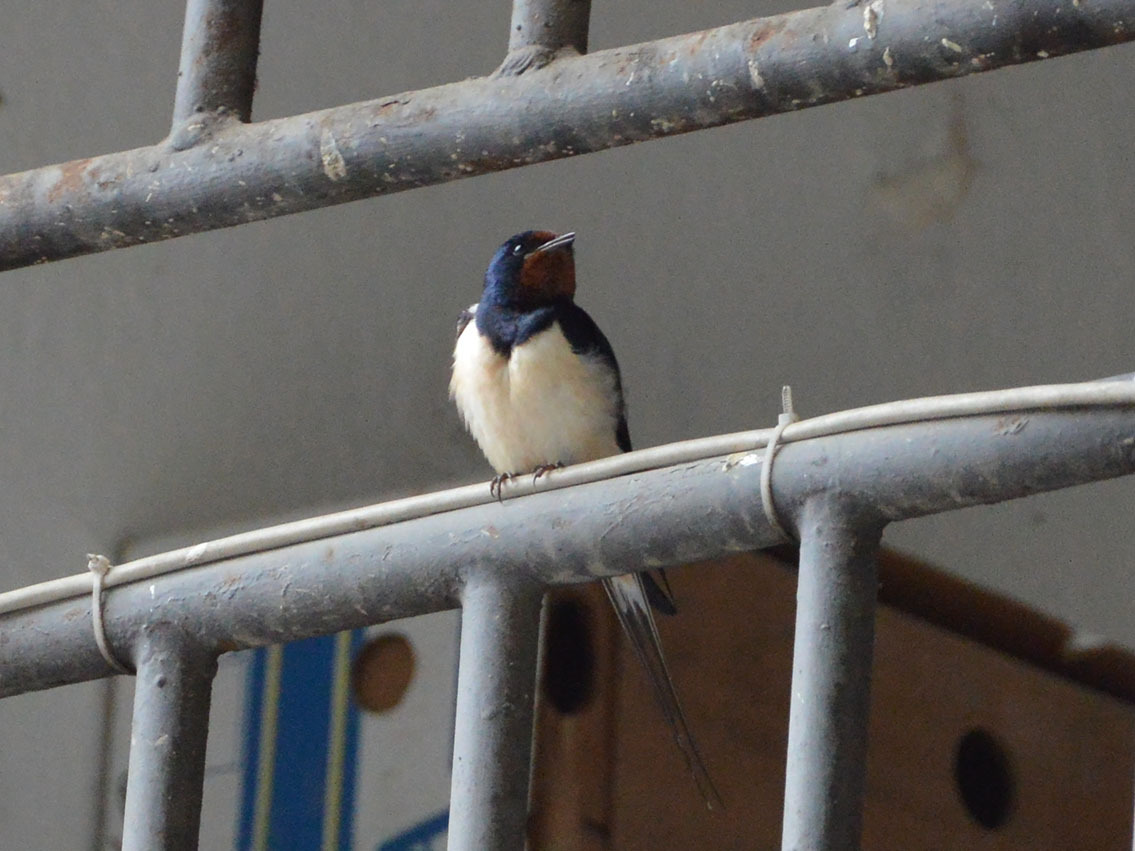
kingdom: Animalia
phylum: Chordata
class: Aves
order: Passeriformes
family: Hirundinidae
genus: Hirundo
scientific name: Hirundo rustica
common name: Barn swallow
